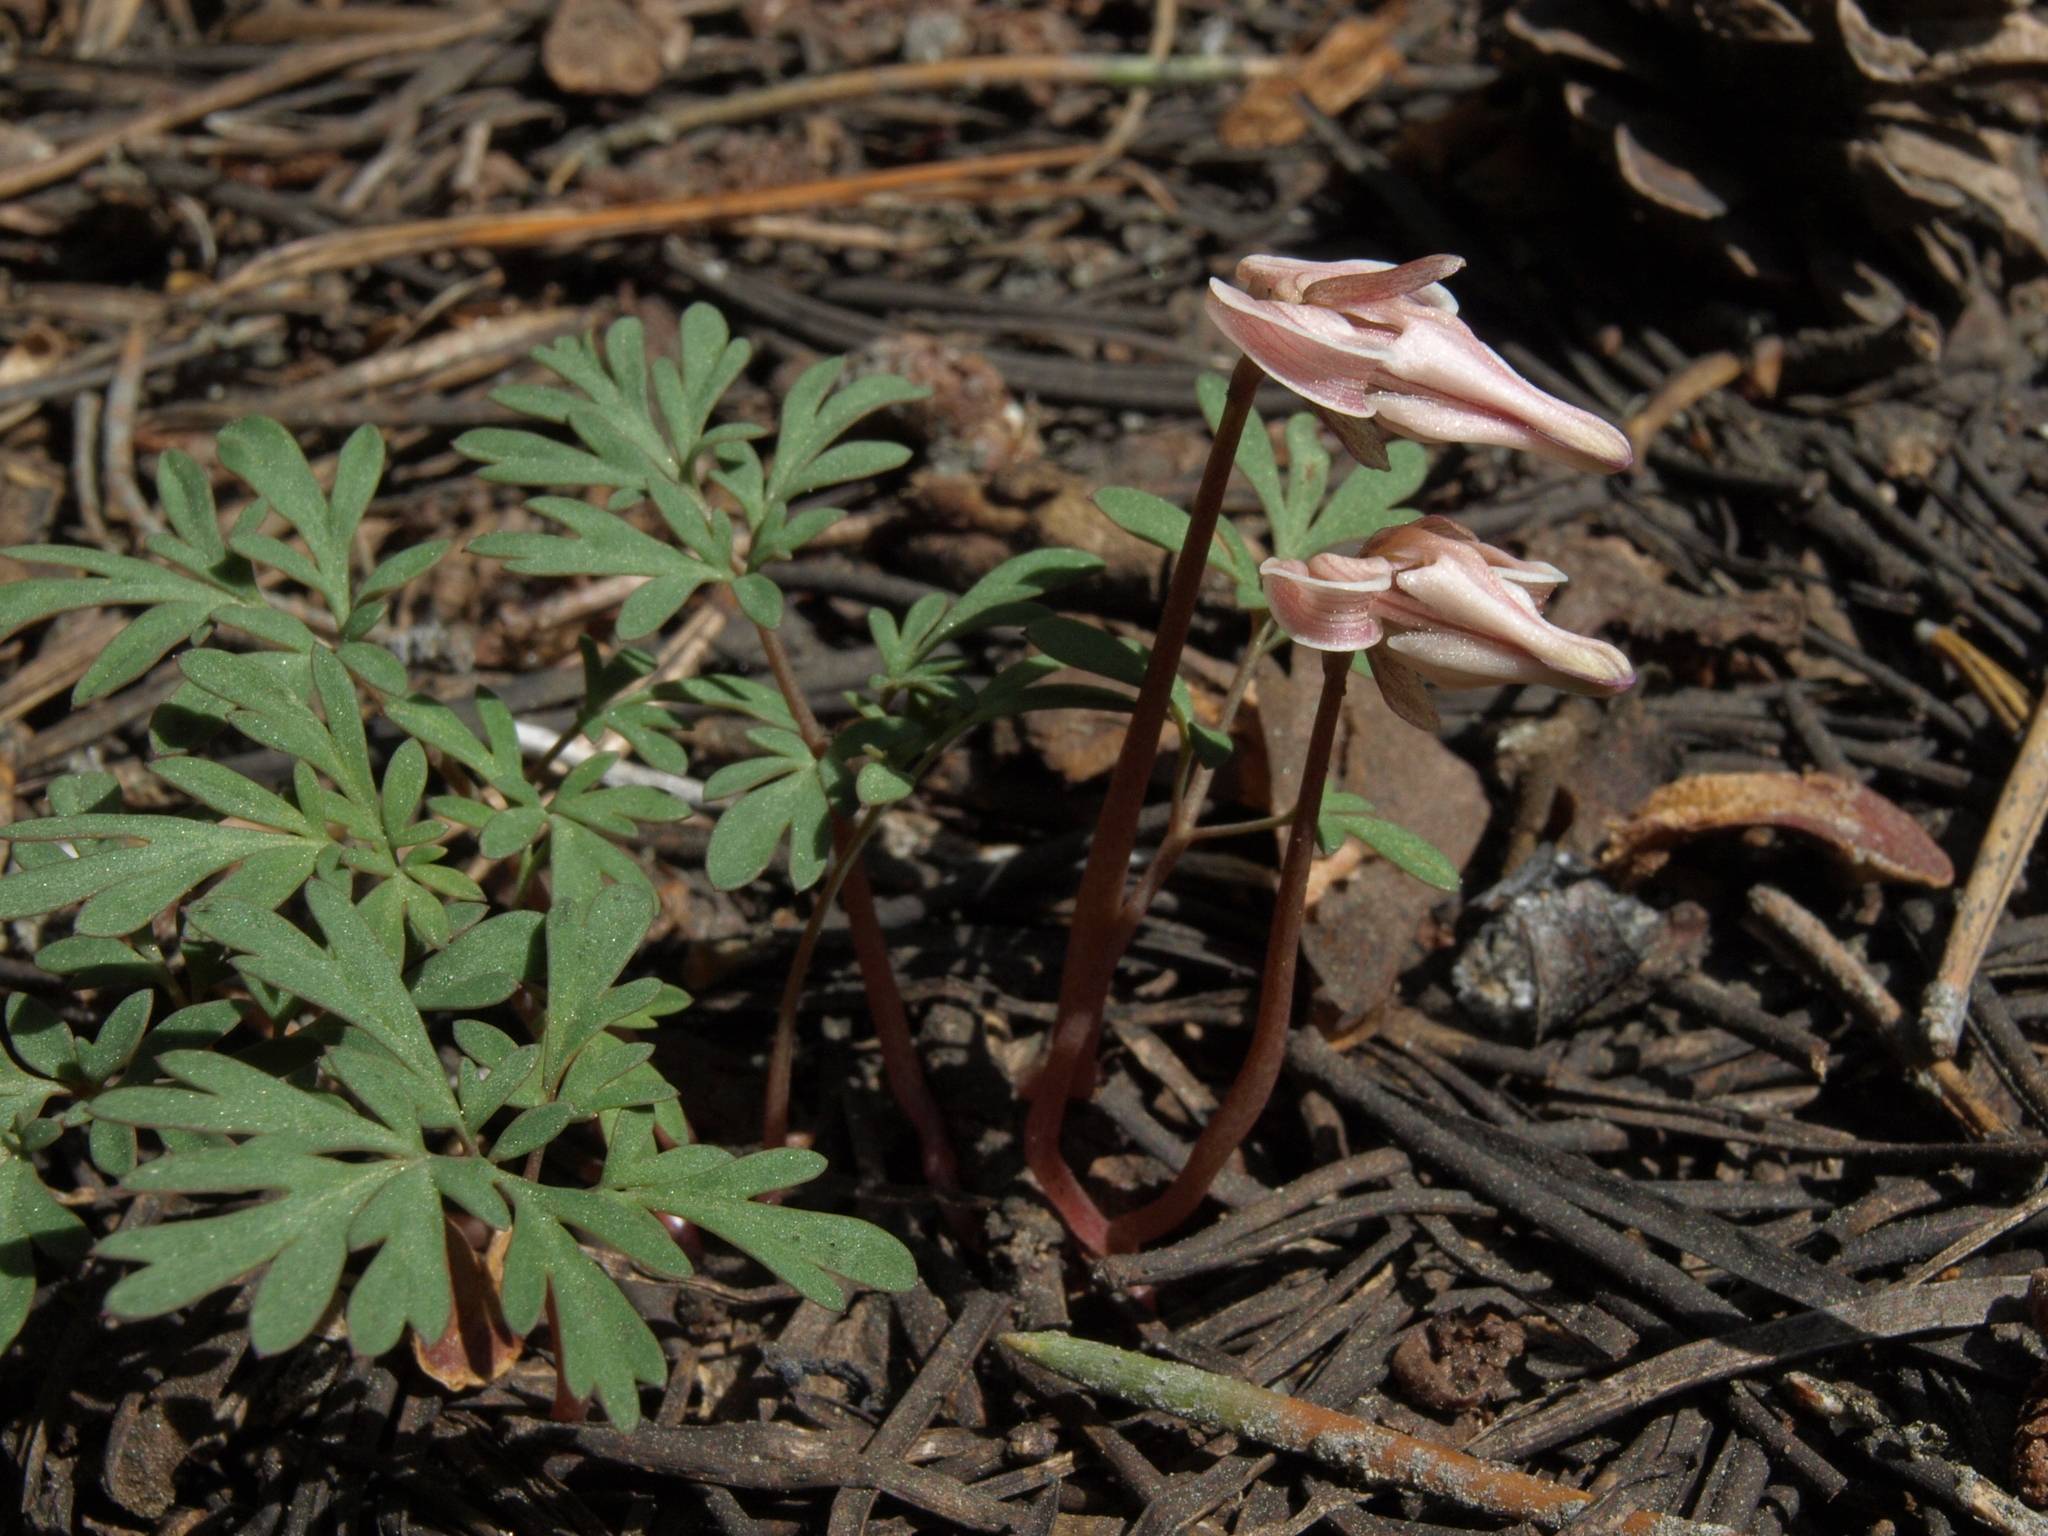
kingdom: Plantae
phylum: Tracheophyta
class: Magnoliopsida
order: Ranunculales
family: Papaveraceae
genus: Dicentra
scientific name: Dicentra uniflora
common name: Steer's-head
